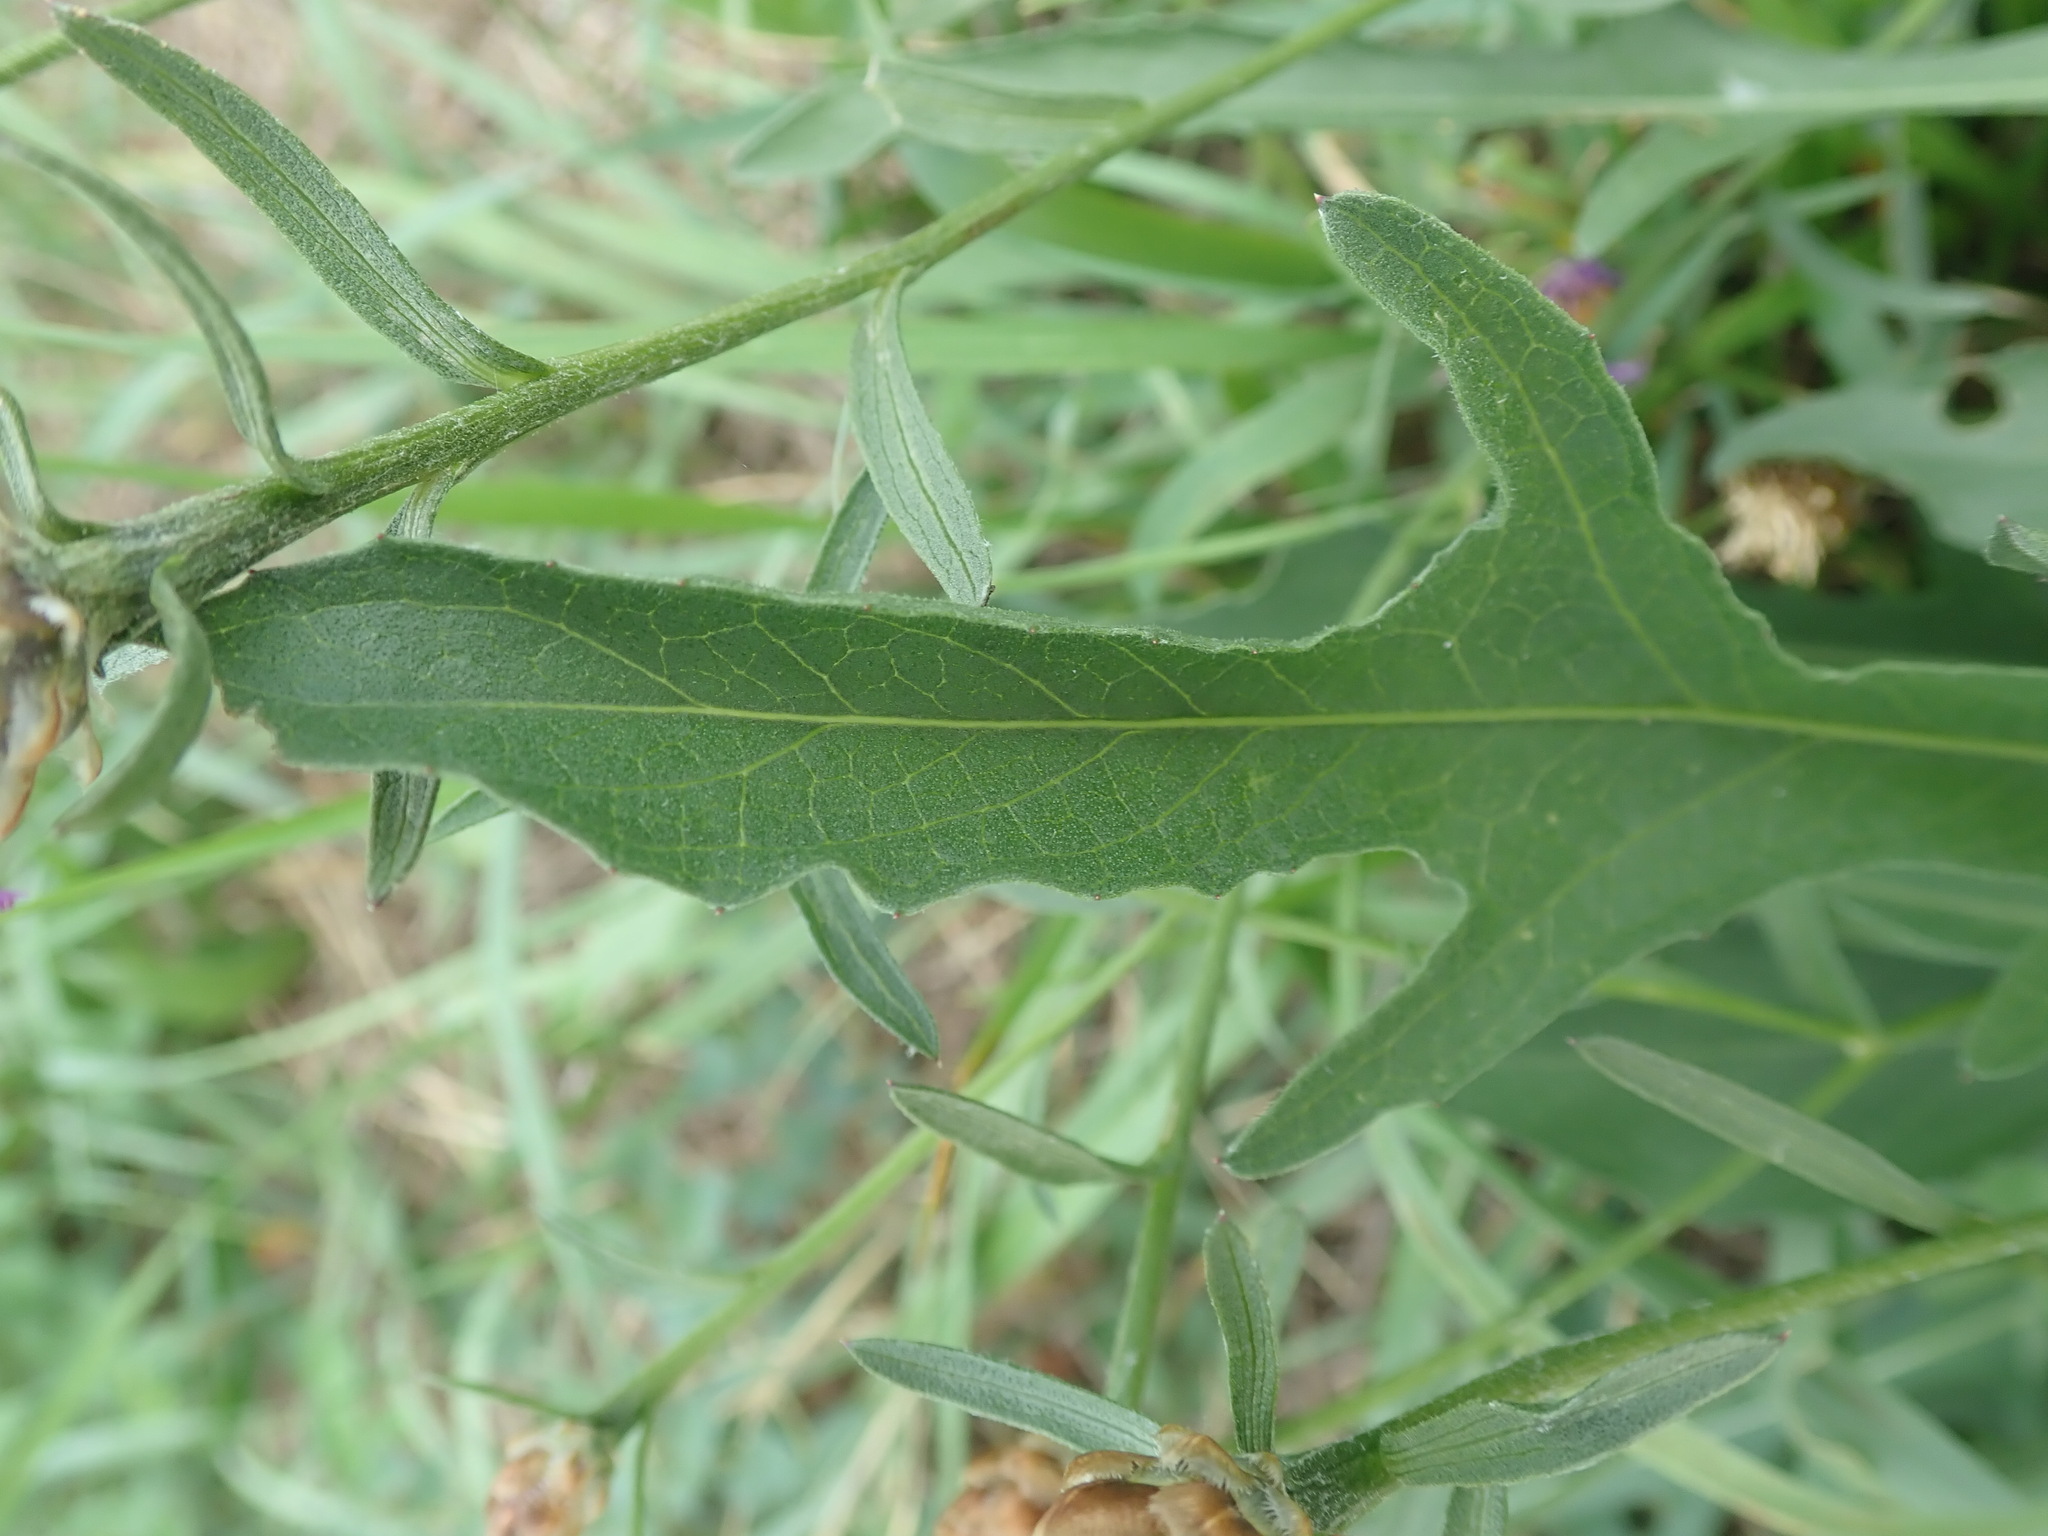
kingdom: Plantae
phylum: Tracheophyta
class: Magnoliopsida
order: Asterales
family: Asteraceae
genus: Centaurea
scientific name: Centaurea jacea
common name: Brown knapweed
